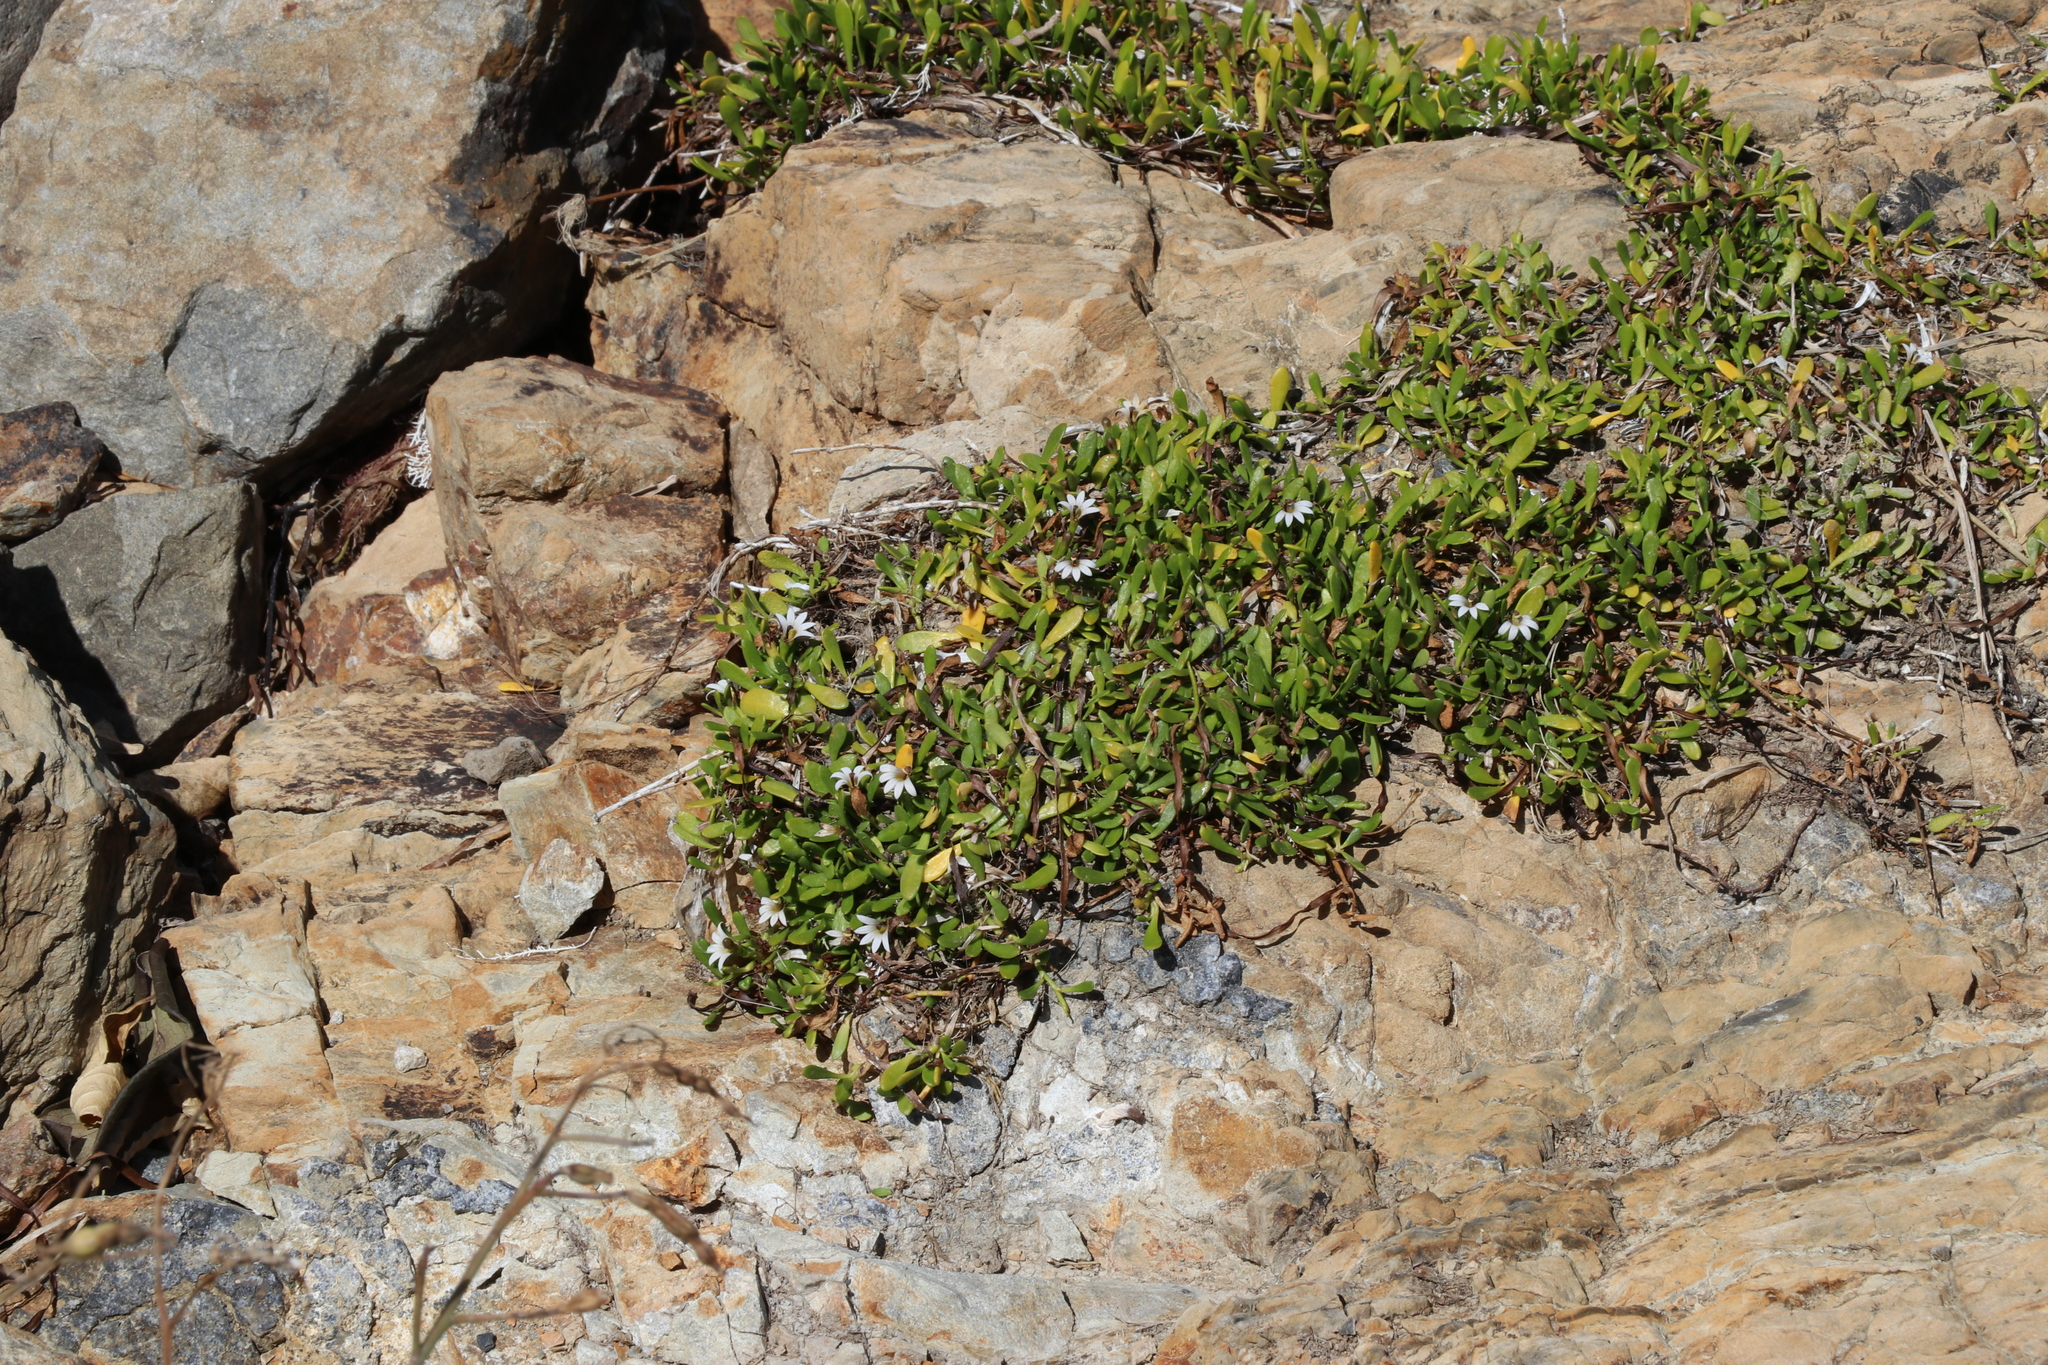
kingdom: Plantae
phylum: Tracheophyta
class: Magnoliopsida
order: Asterales
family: Goodeniaceae
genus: Goodenia
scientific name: Goodenia radicans
